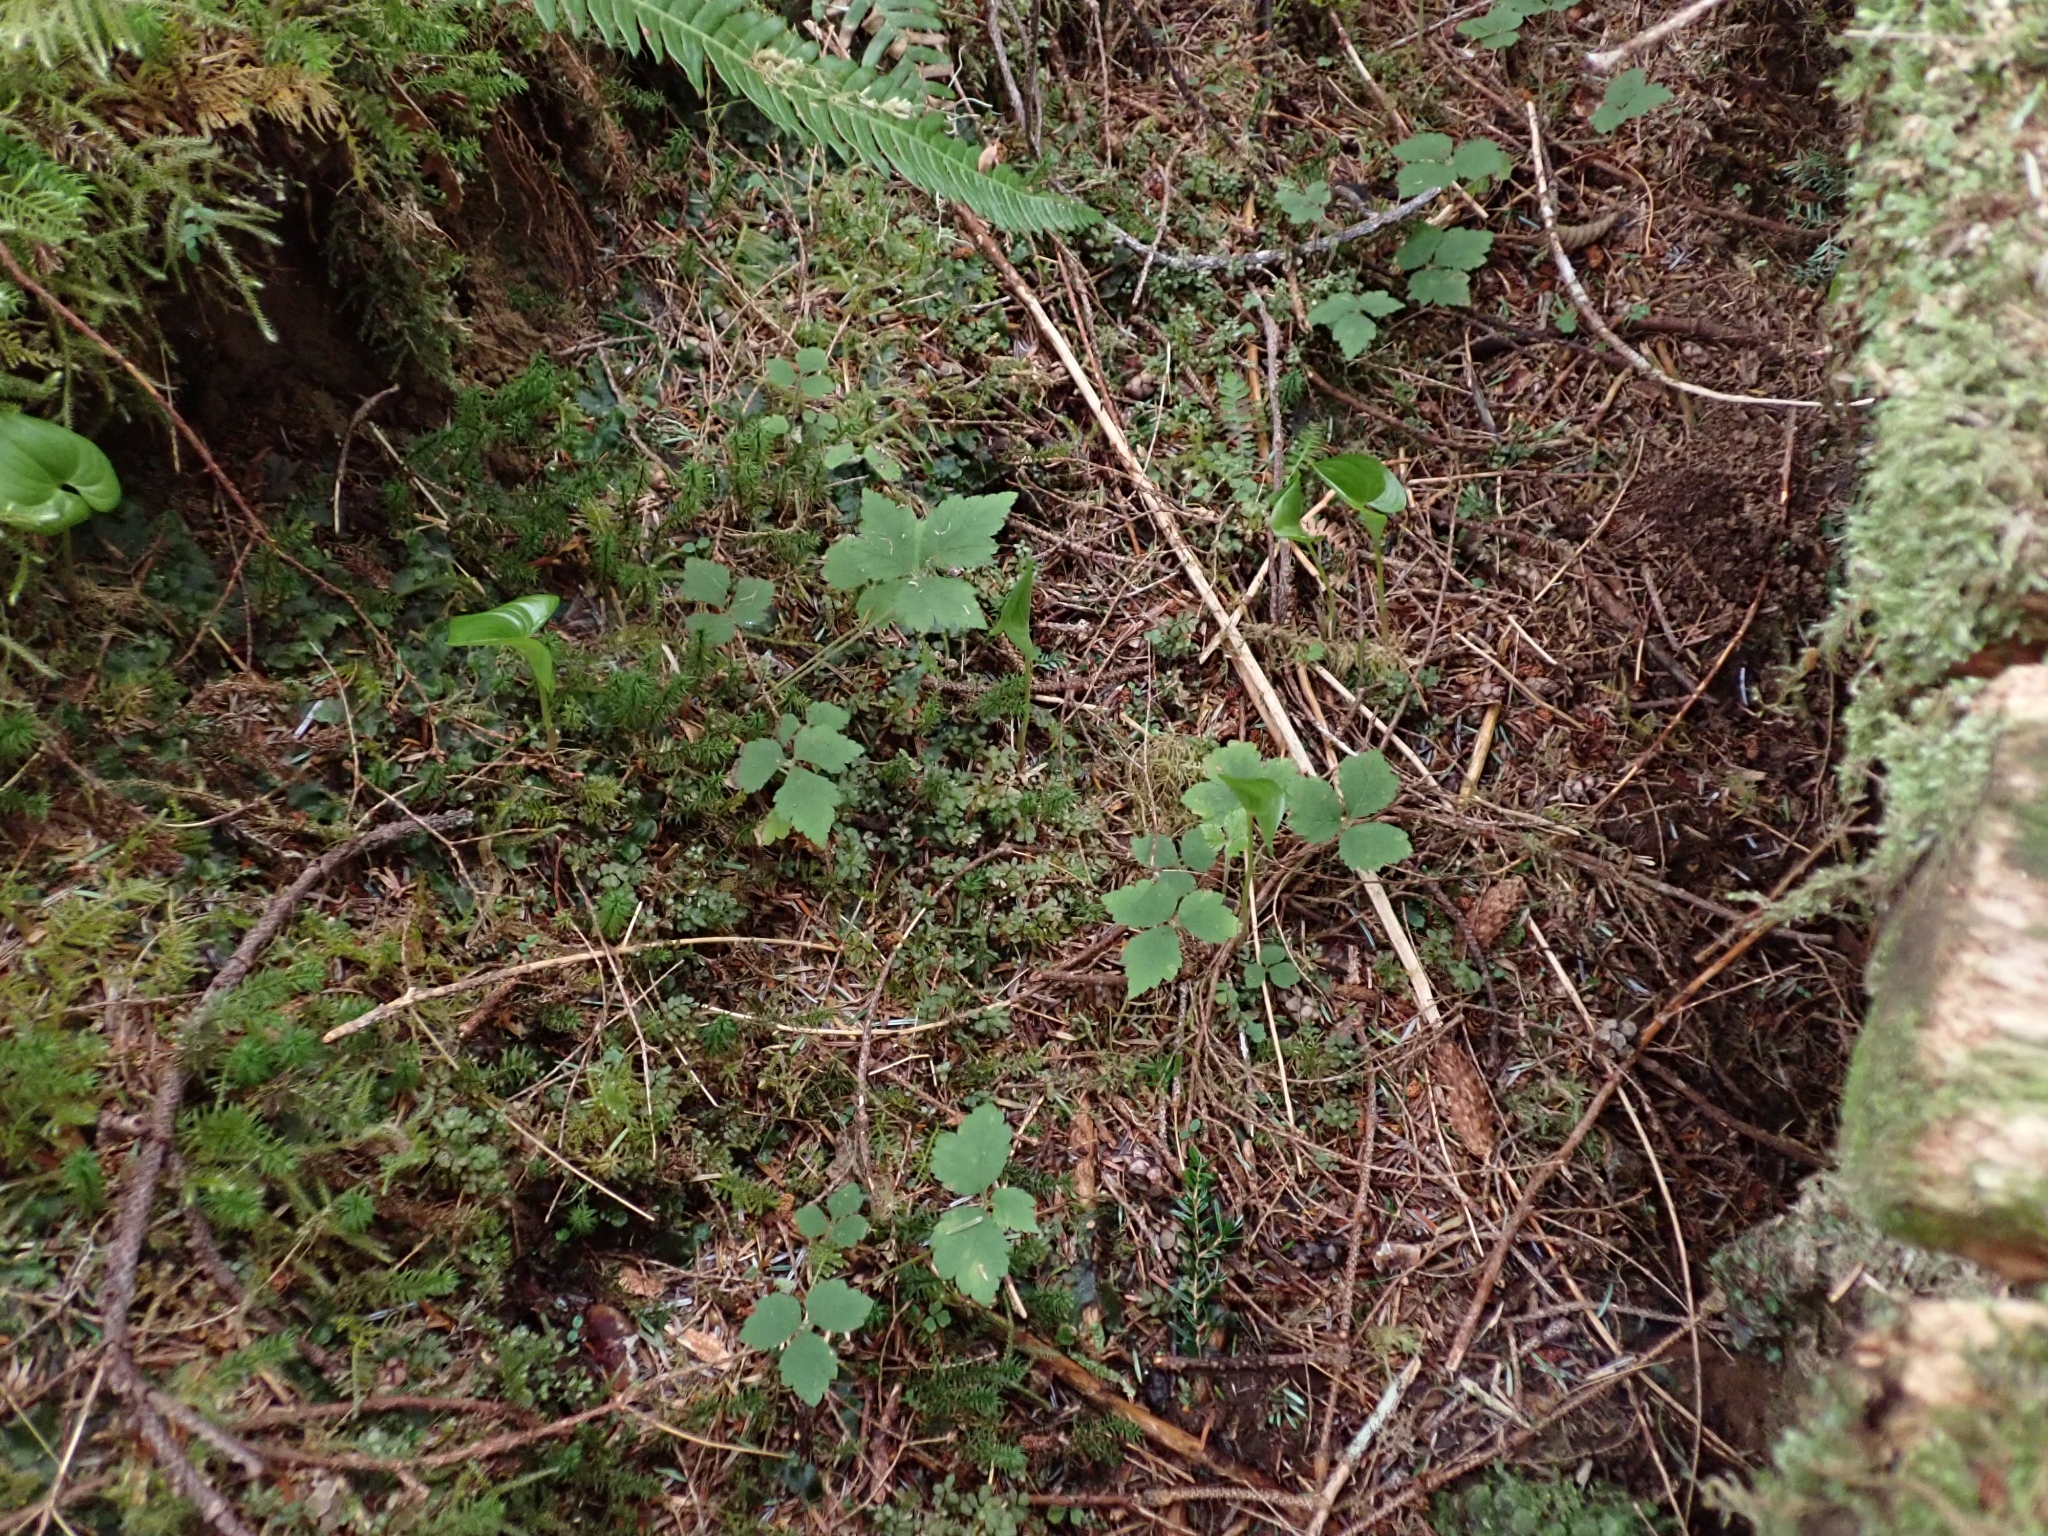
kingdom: Plantae
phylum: Tracheophyta
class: Magnoliopsida
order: Saxifragales
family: Saxifragaceae
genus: Tiarella
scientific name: Tiarella trifoliata
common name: Sugar-scoop
